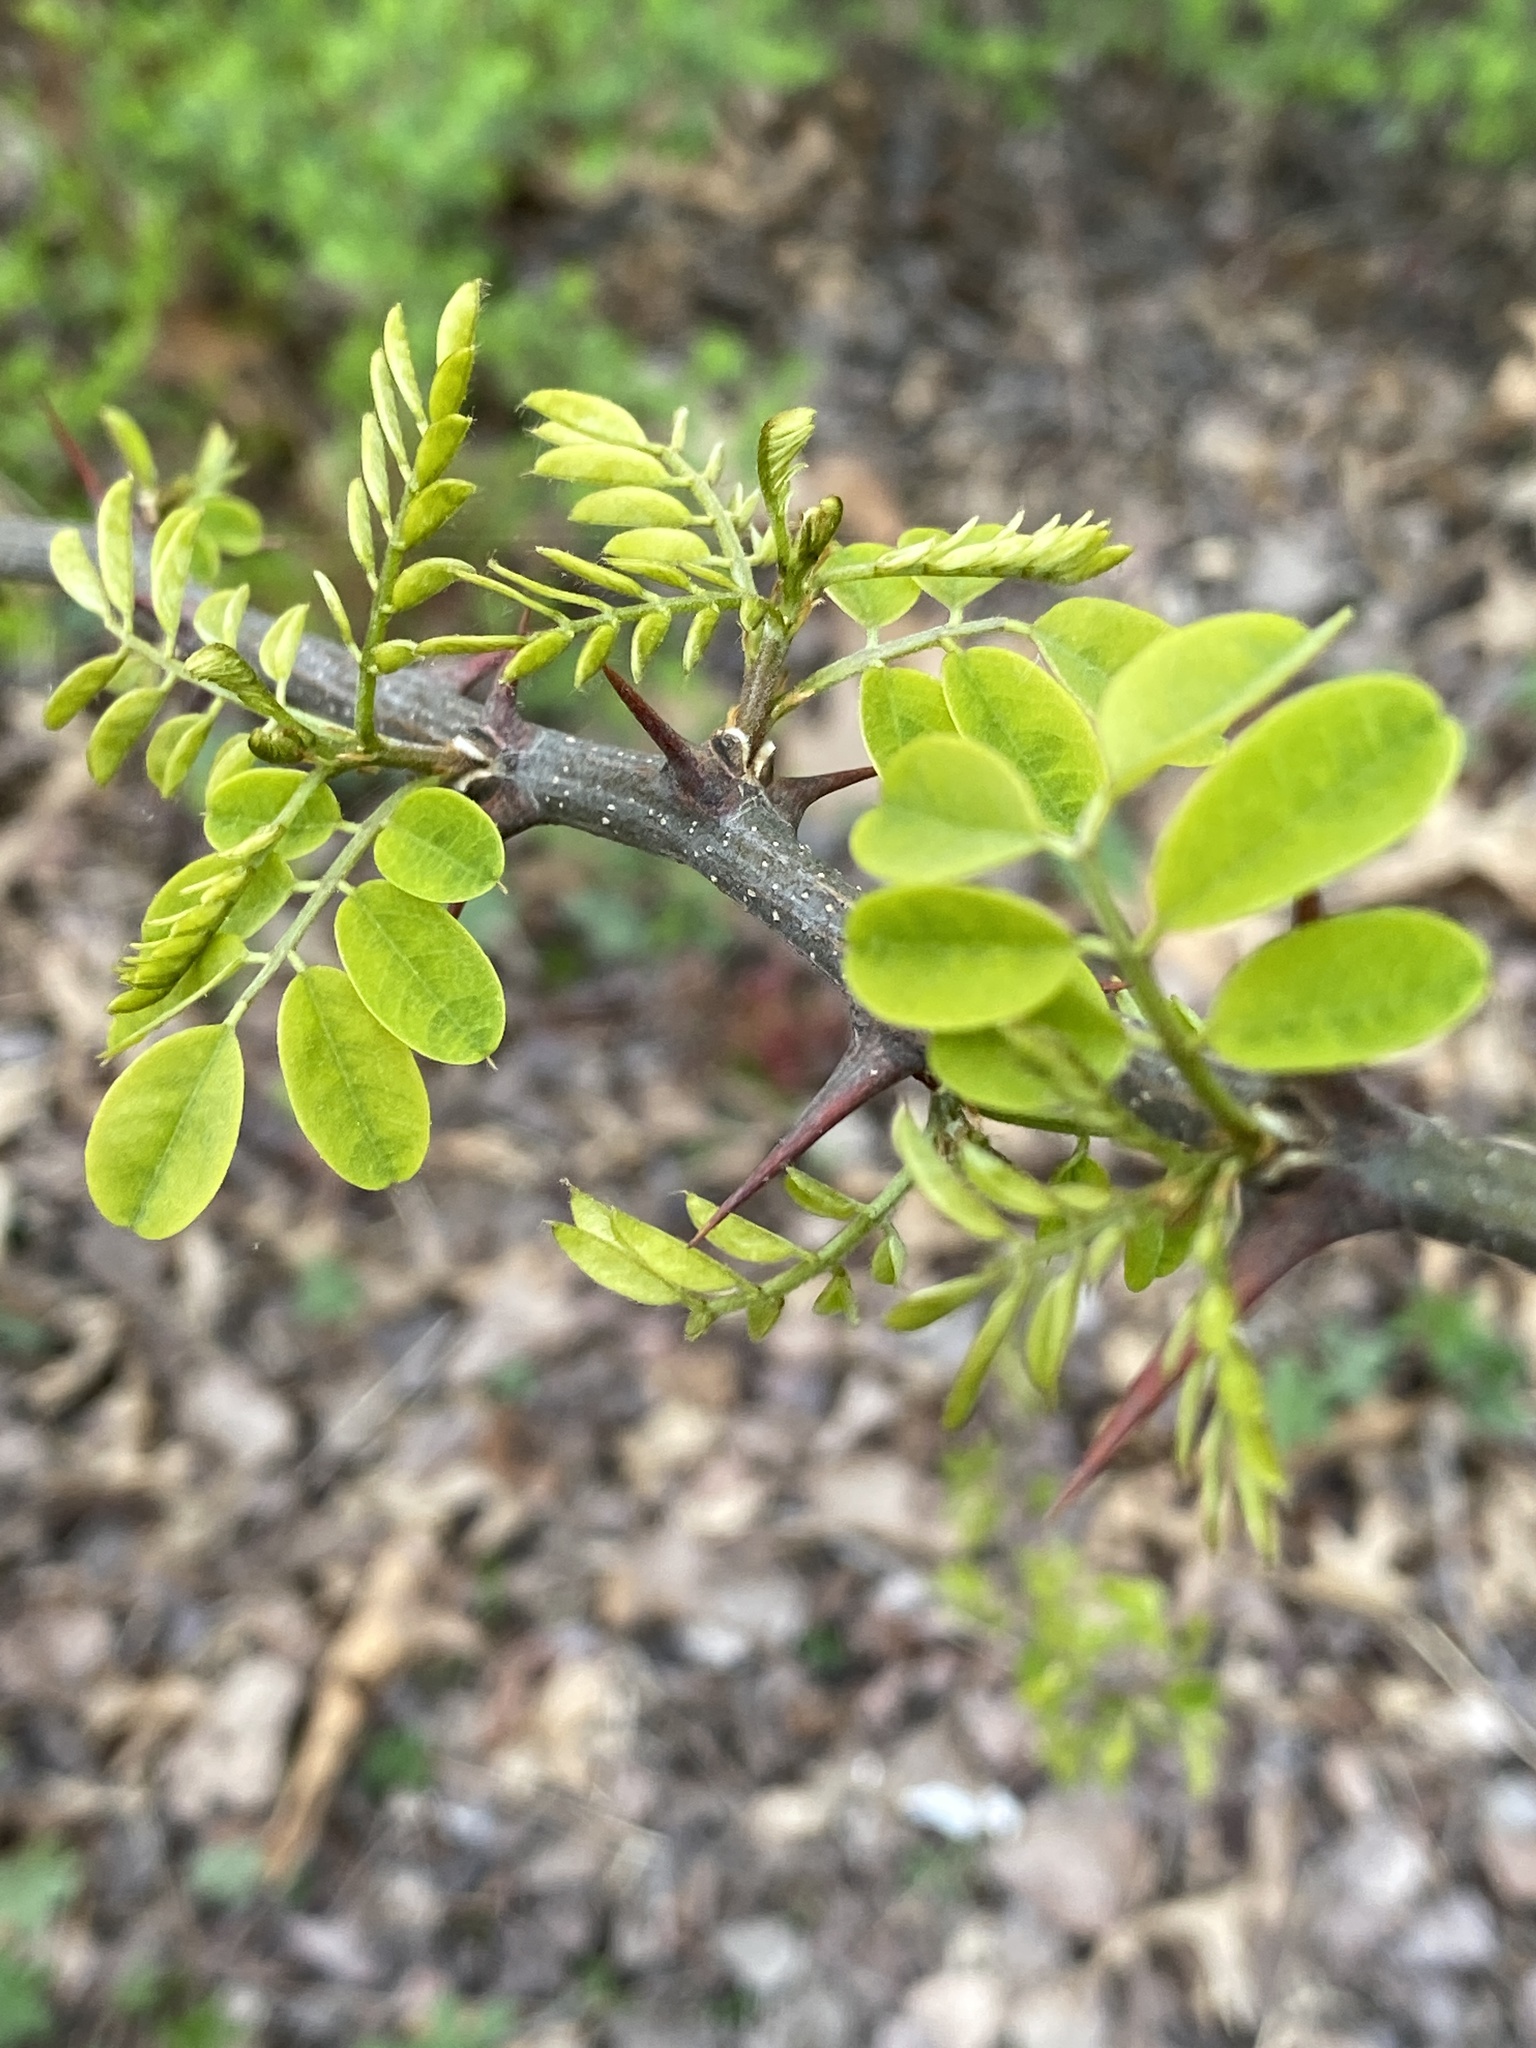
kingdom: Plantae
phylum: Tracheophyta
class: Magnoliopsida
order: Fabales
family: Fabaceae
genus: Robinia
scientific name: Robinia pseudoacacia
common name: Black locust
